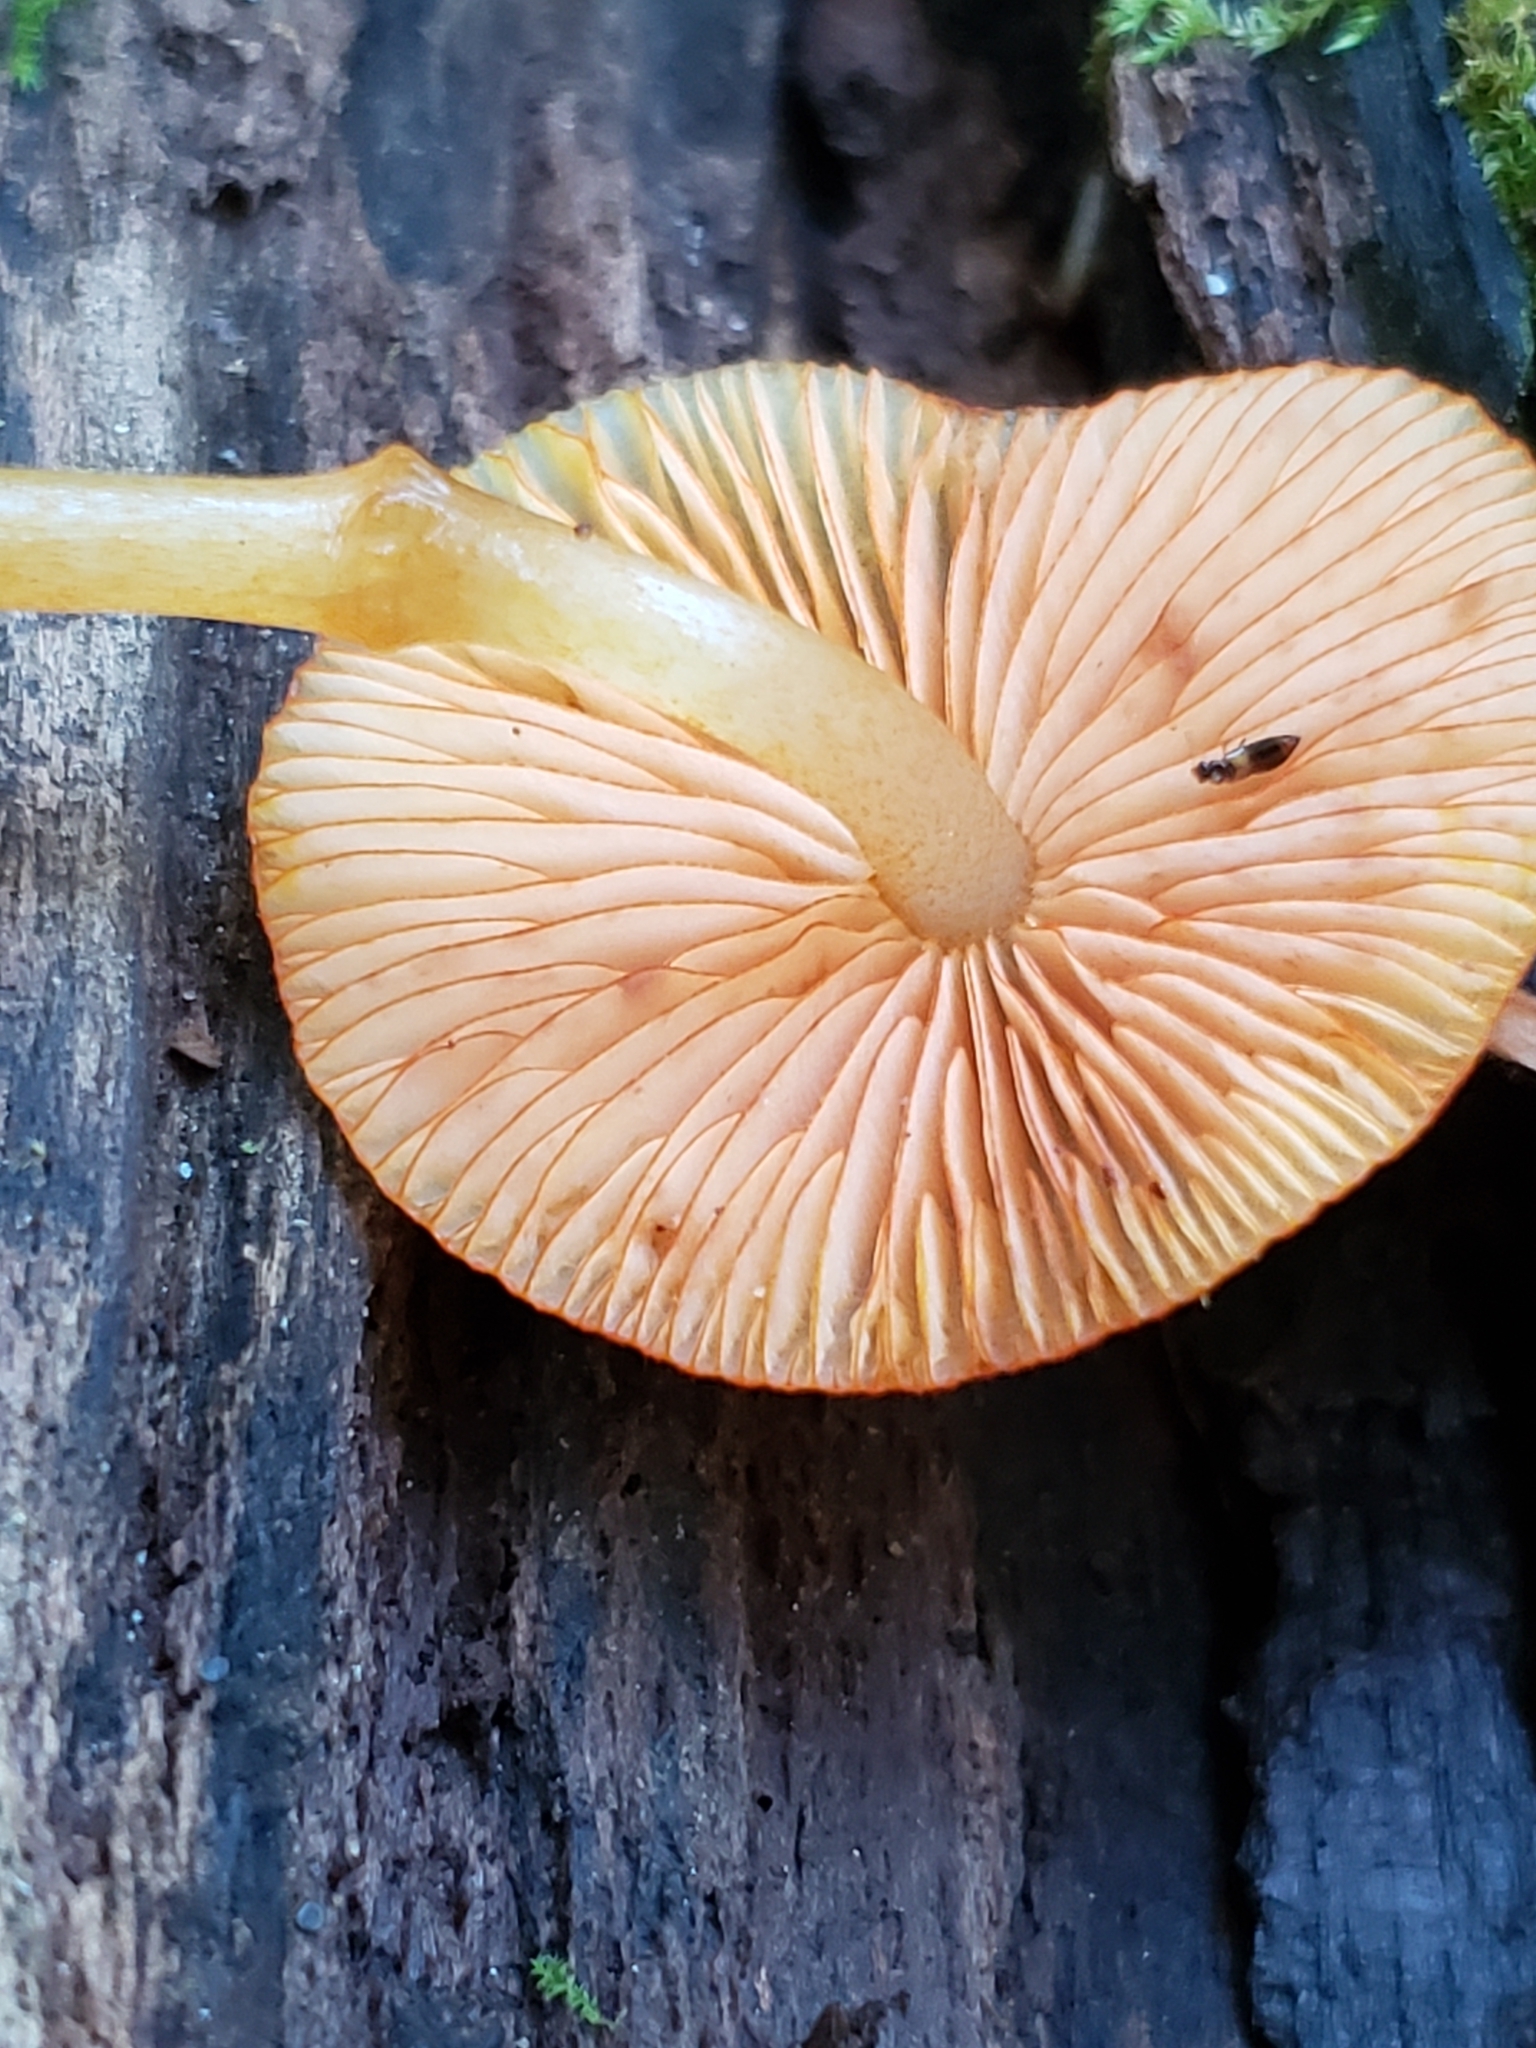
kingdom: Fungi
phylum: Basidiomycota
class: Agaricomycetes
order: Agaricales
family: Mycenaceae
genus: Mycena
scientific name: Mycena leaiana
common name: Orange mycena
